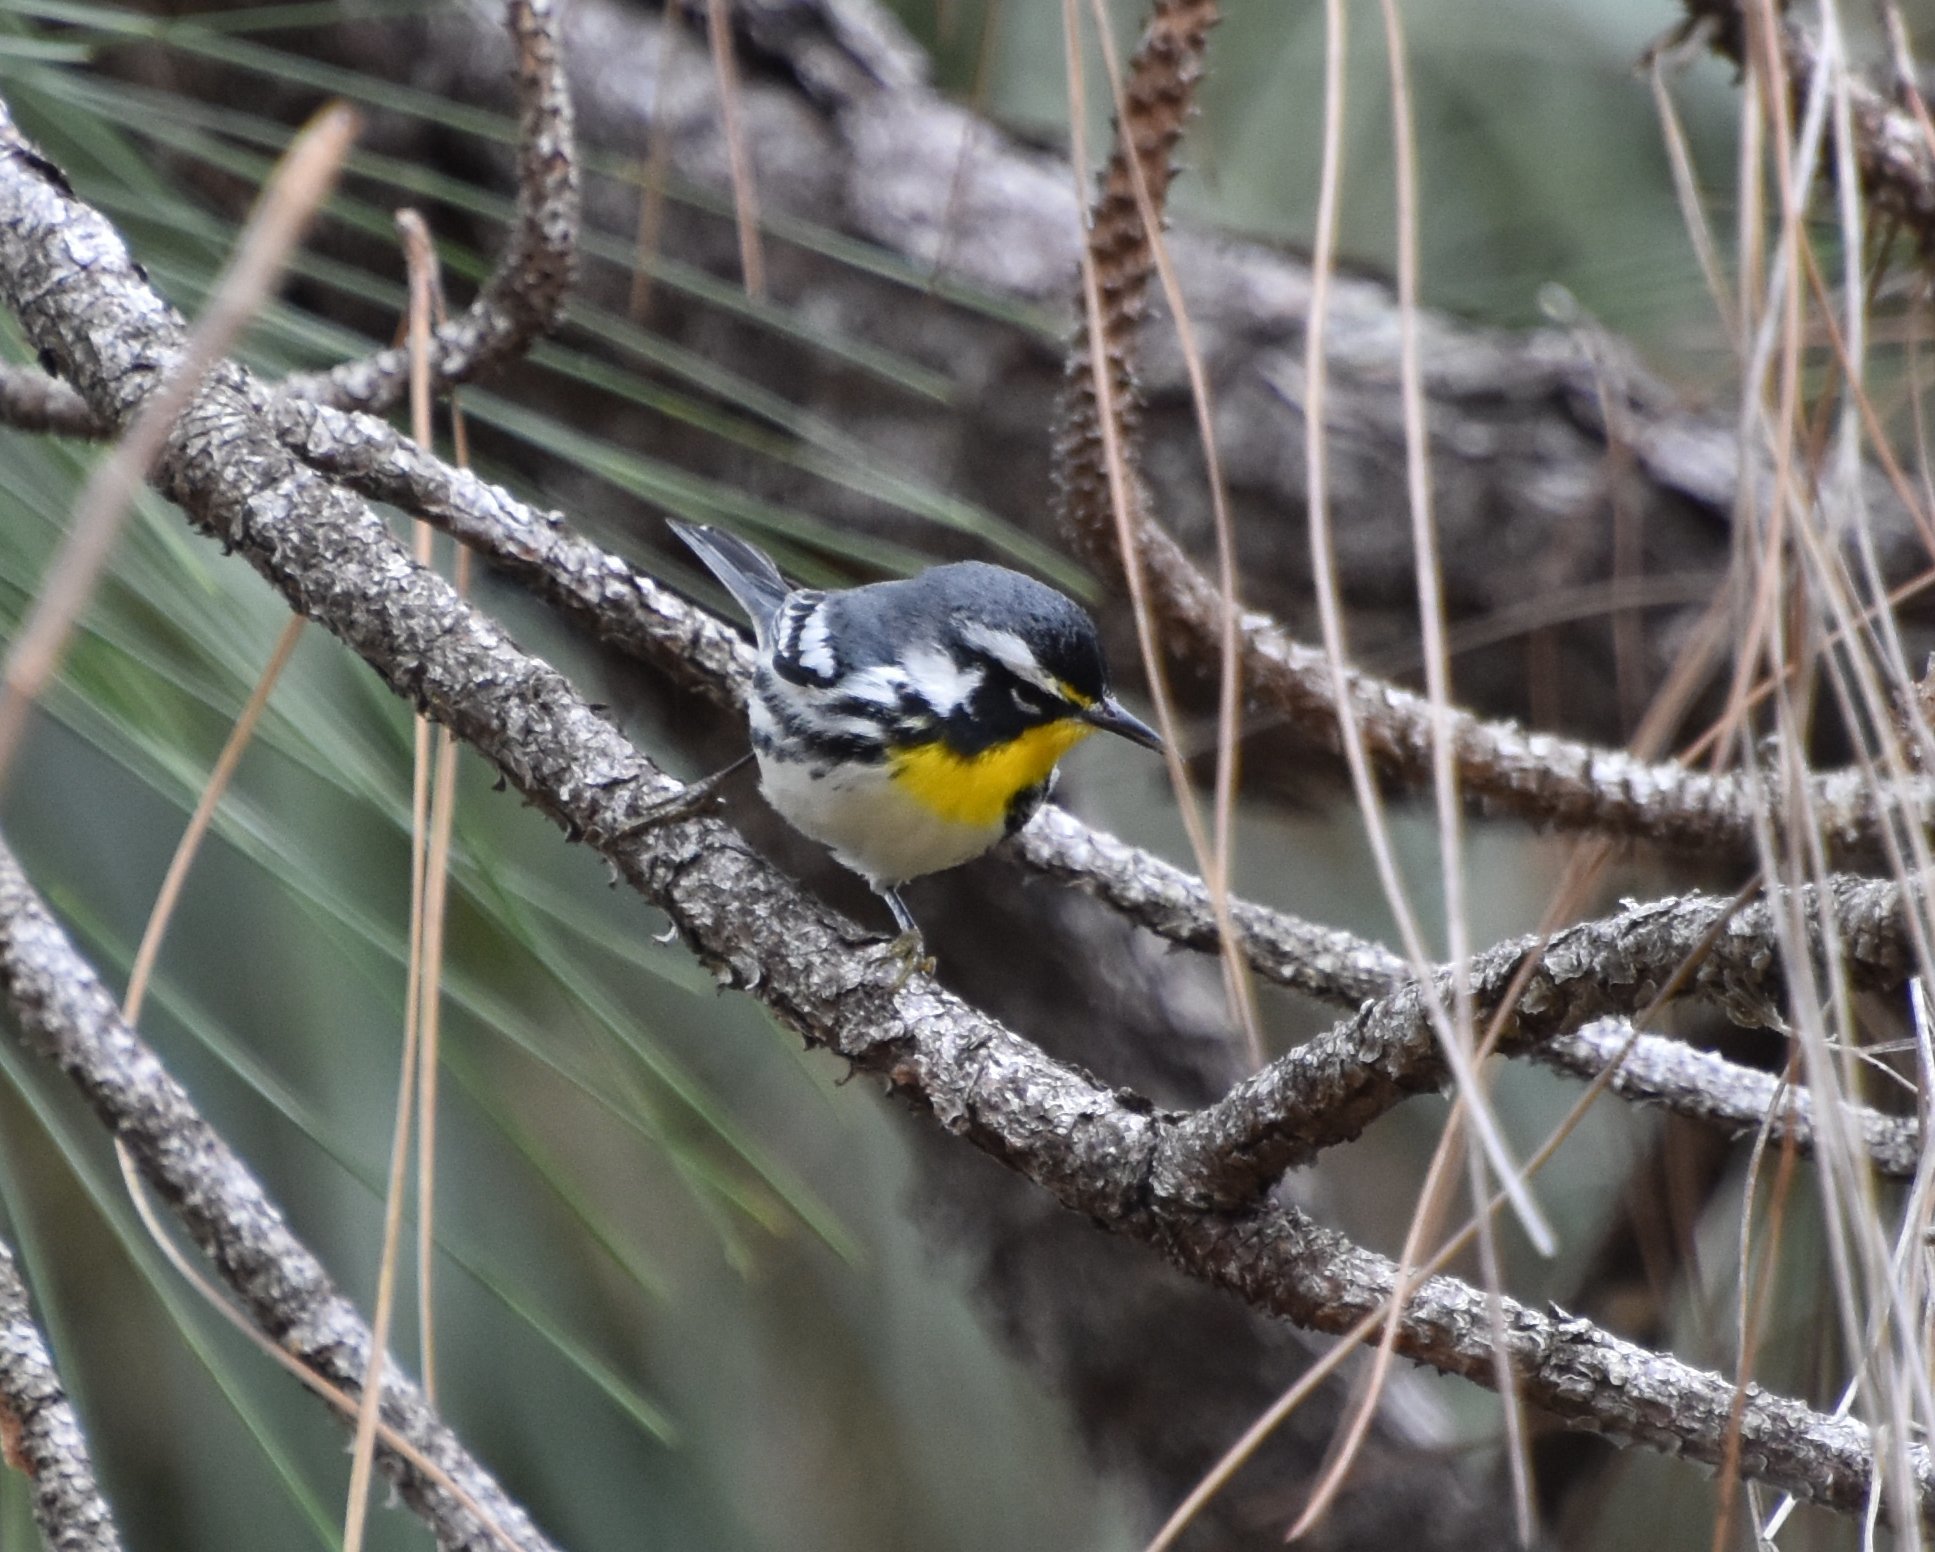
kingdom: Animalia
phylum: Chordata
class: Aves
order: Passeriformes
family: Parulidae
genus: Setophaga
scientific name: Setophaga dominica
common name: Yellow-throated warbler
